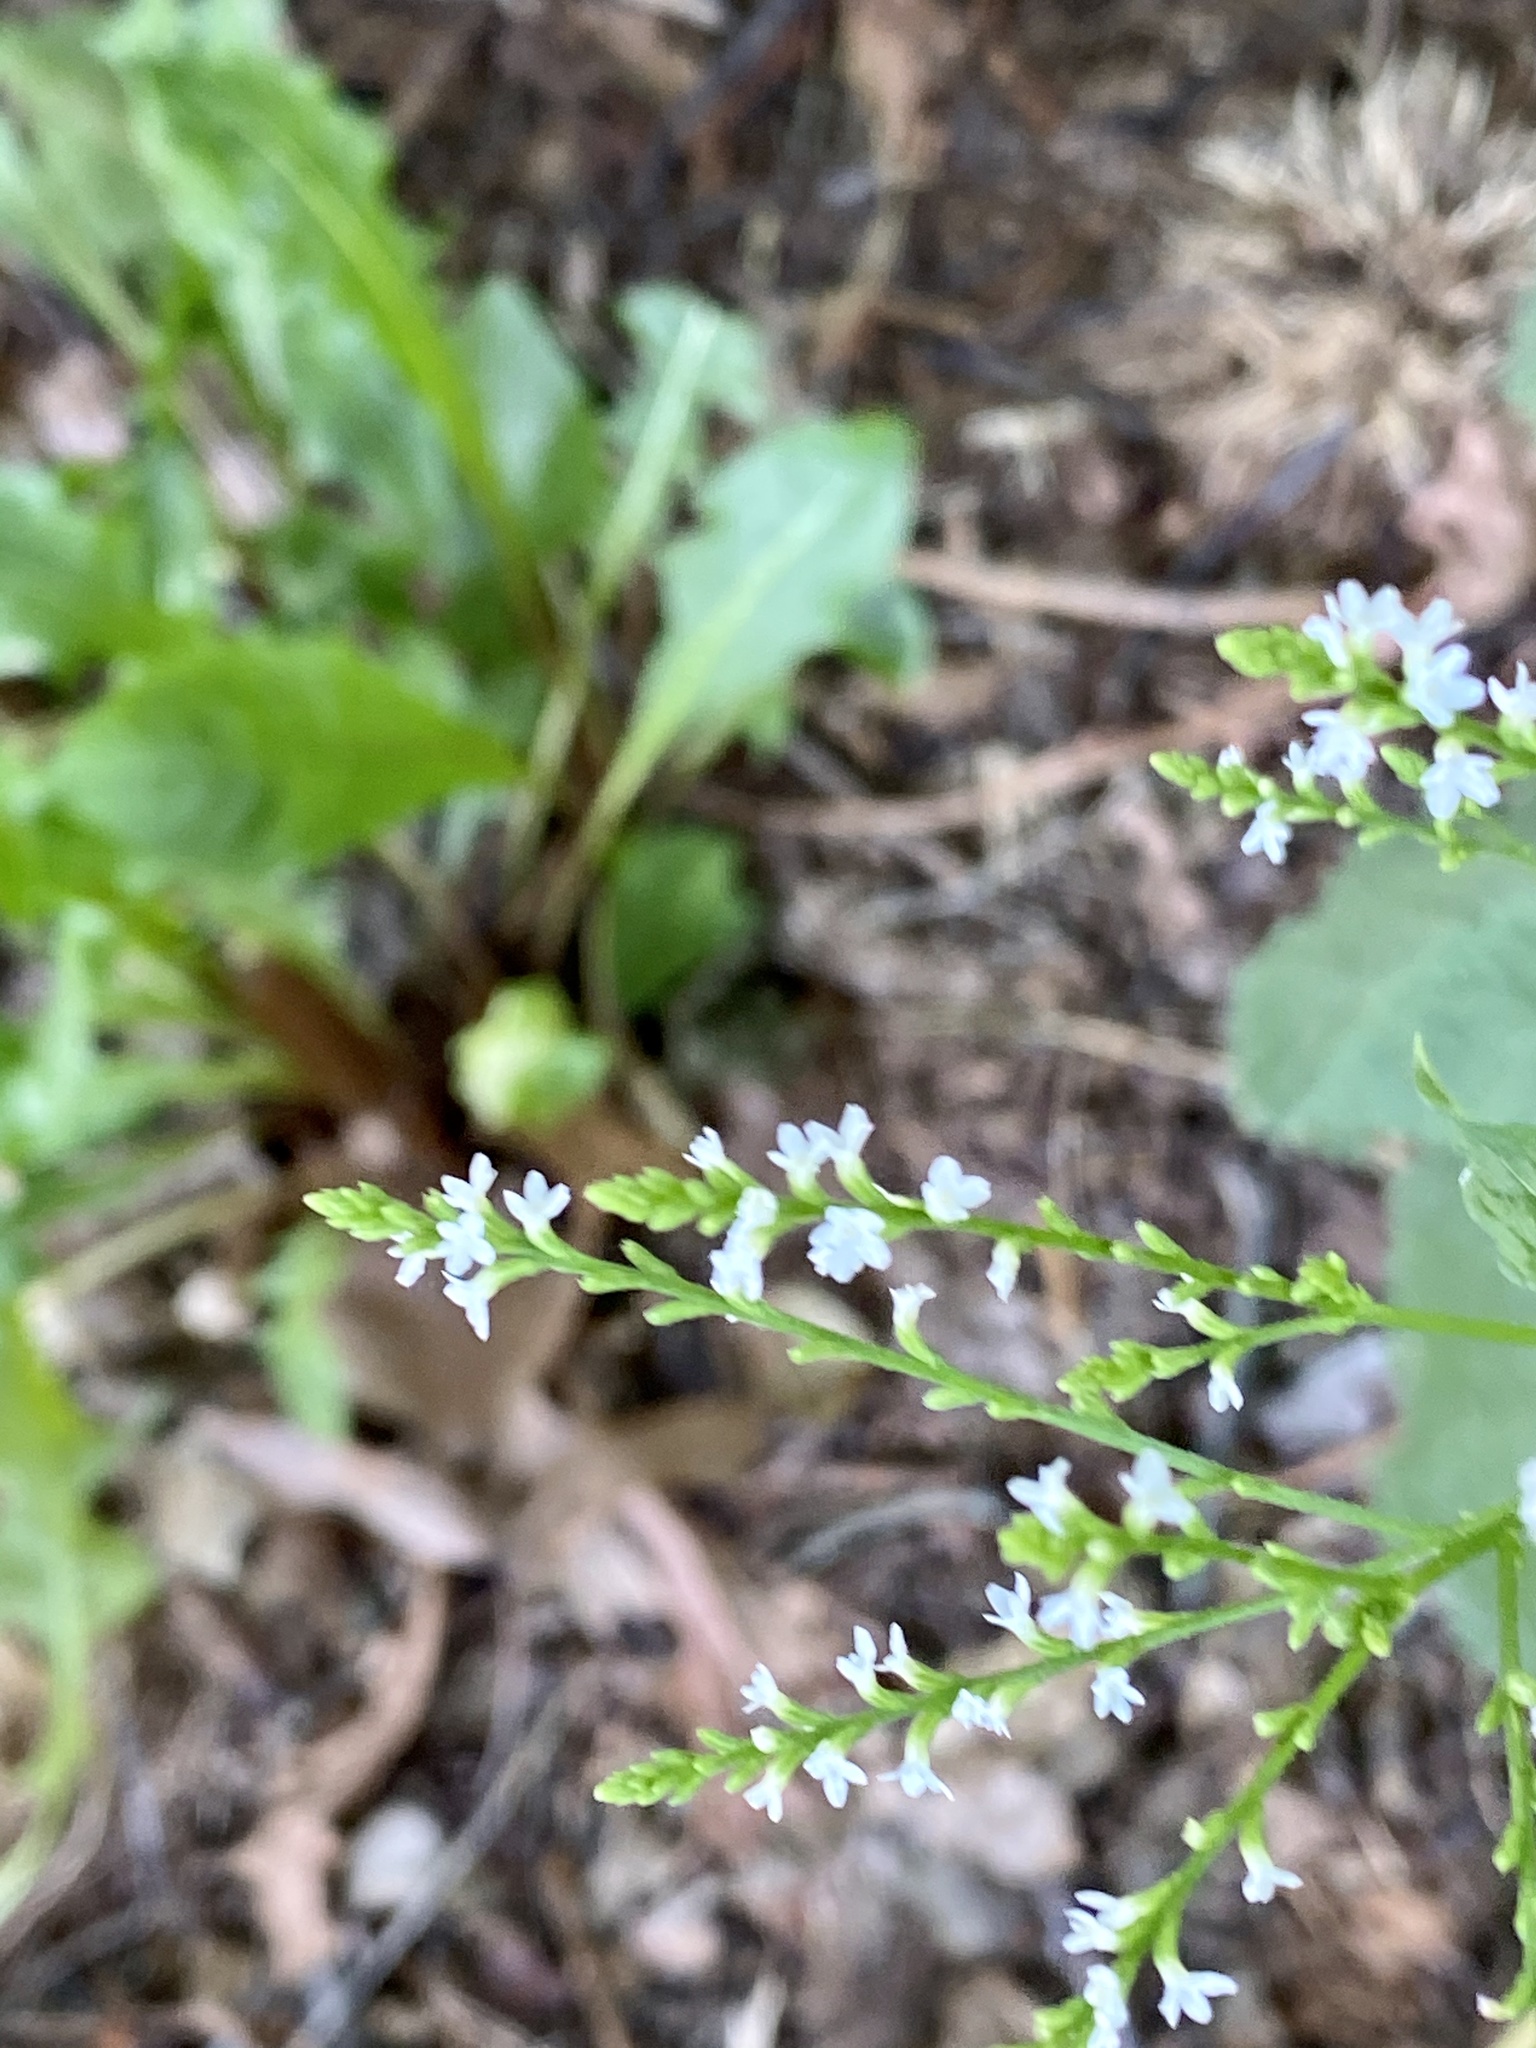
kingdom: Plantae
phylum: Tracheophyta
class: Magnoliopsida
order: Lamiales
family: Verbenaceae
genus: Verbena
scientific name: Verbena urticifolia
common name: Nettle-leaved vervain
